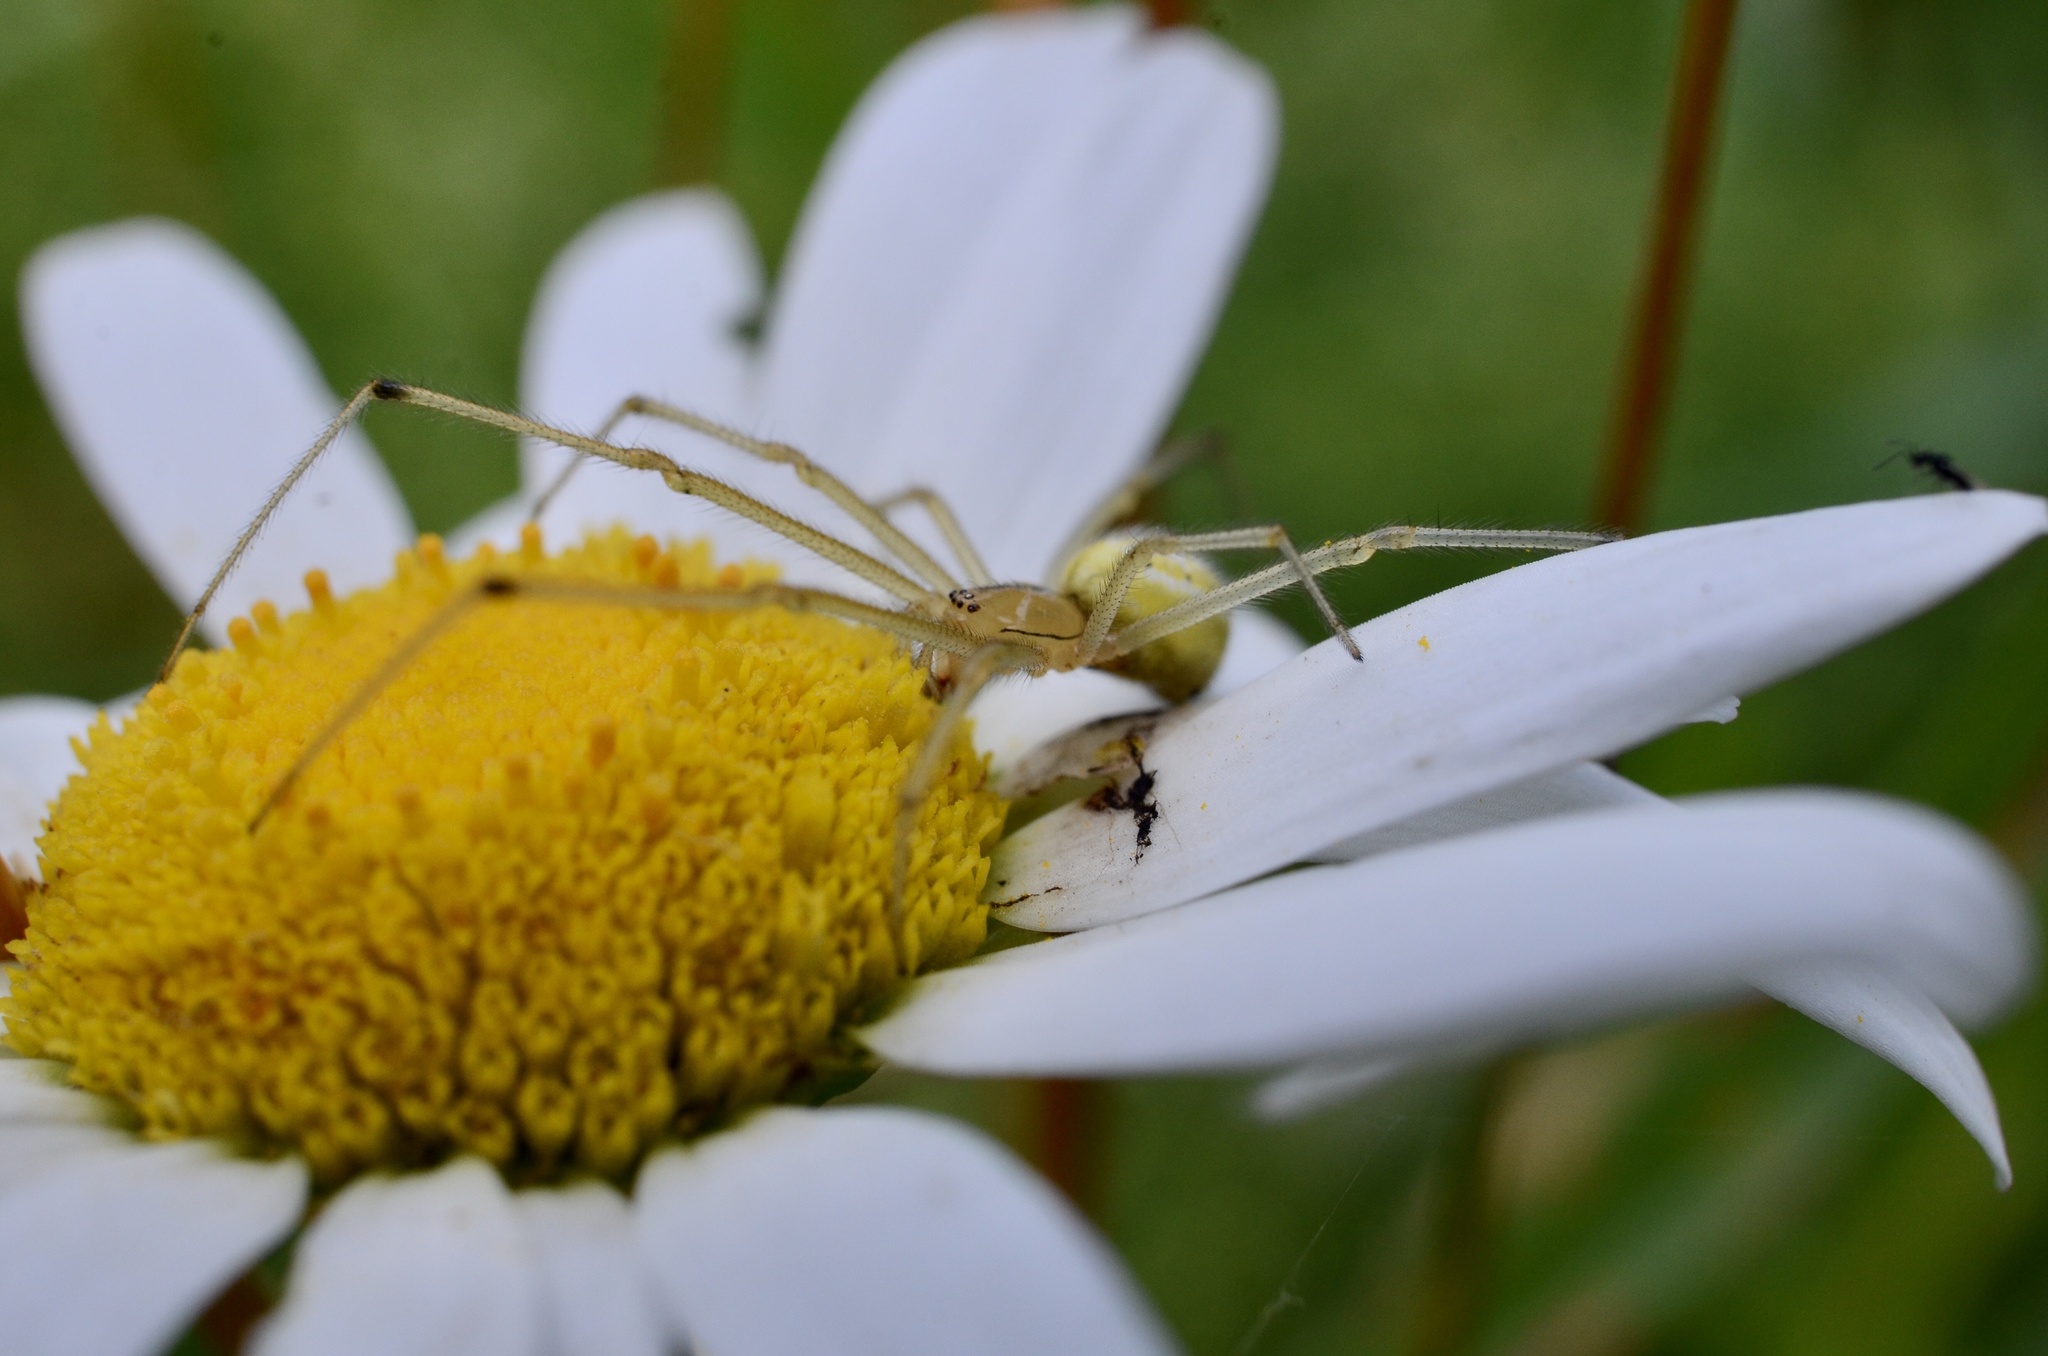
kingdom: Animalia
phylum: Arthropoda
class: Arachnida
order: Araneae
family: Theridiidae
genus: Enoplognatha
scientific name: Enoplognatha
